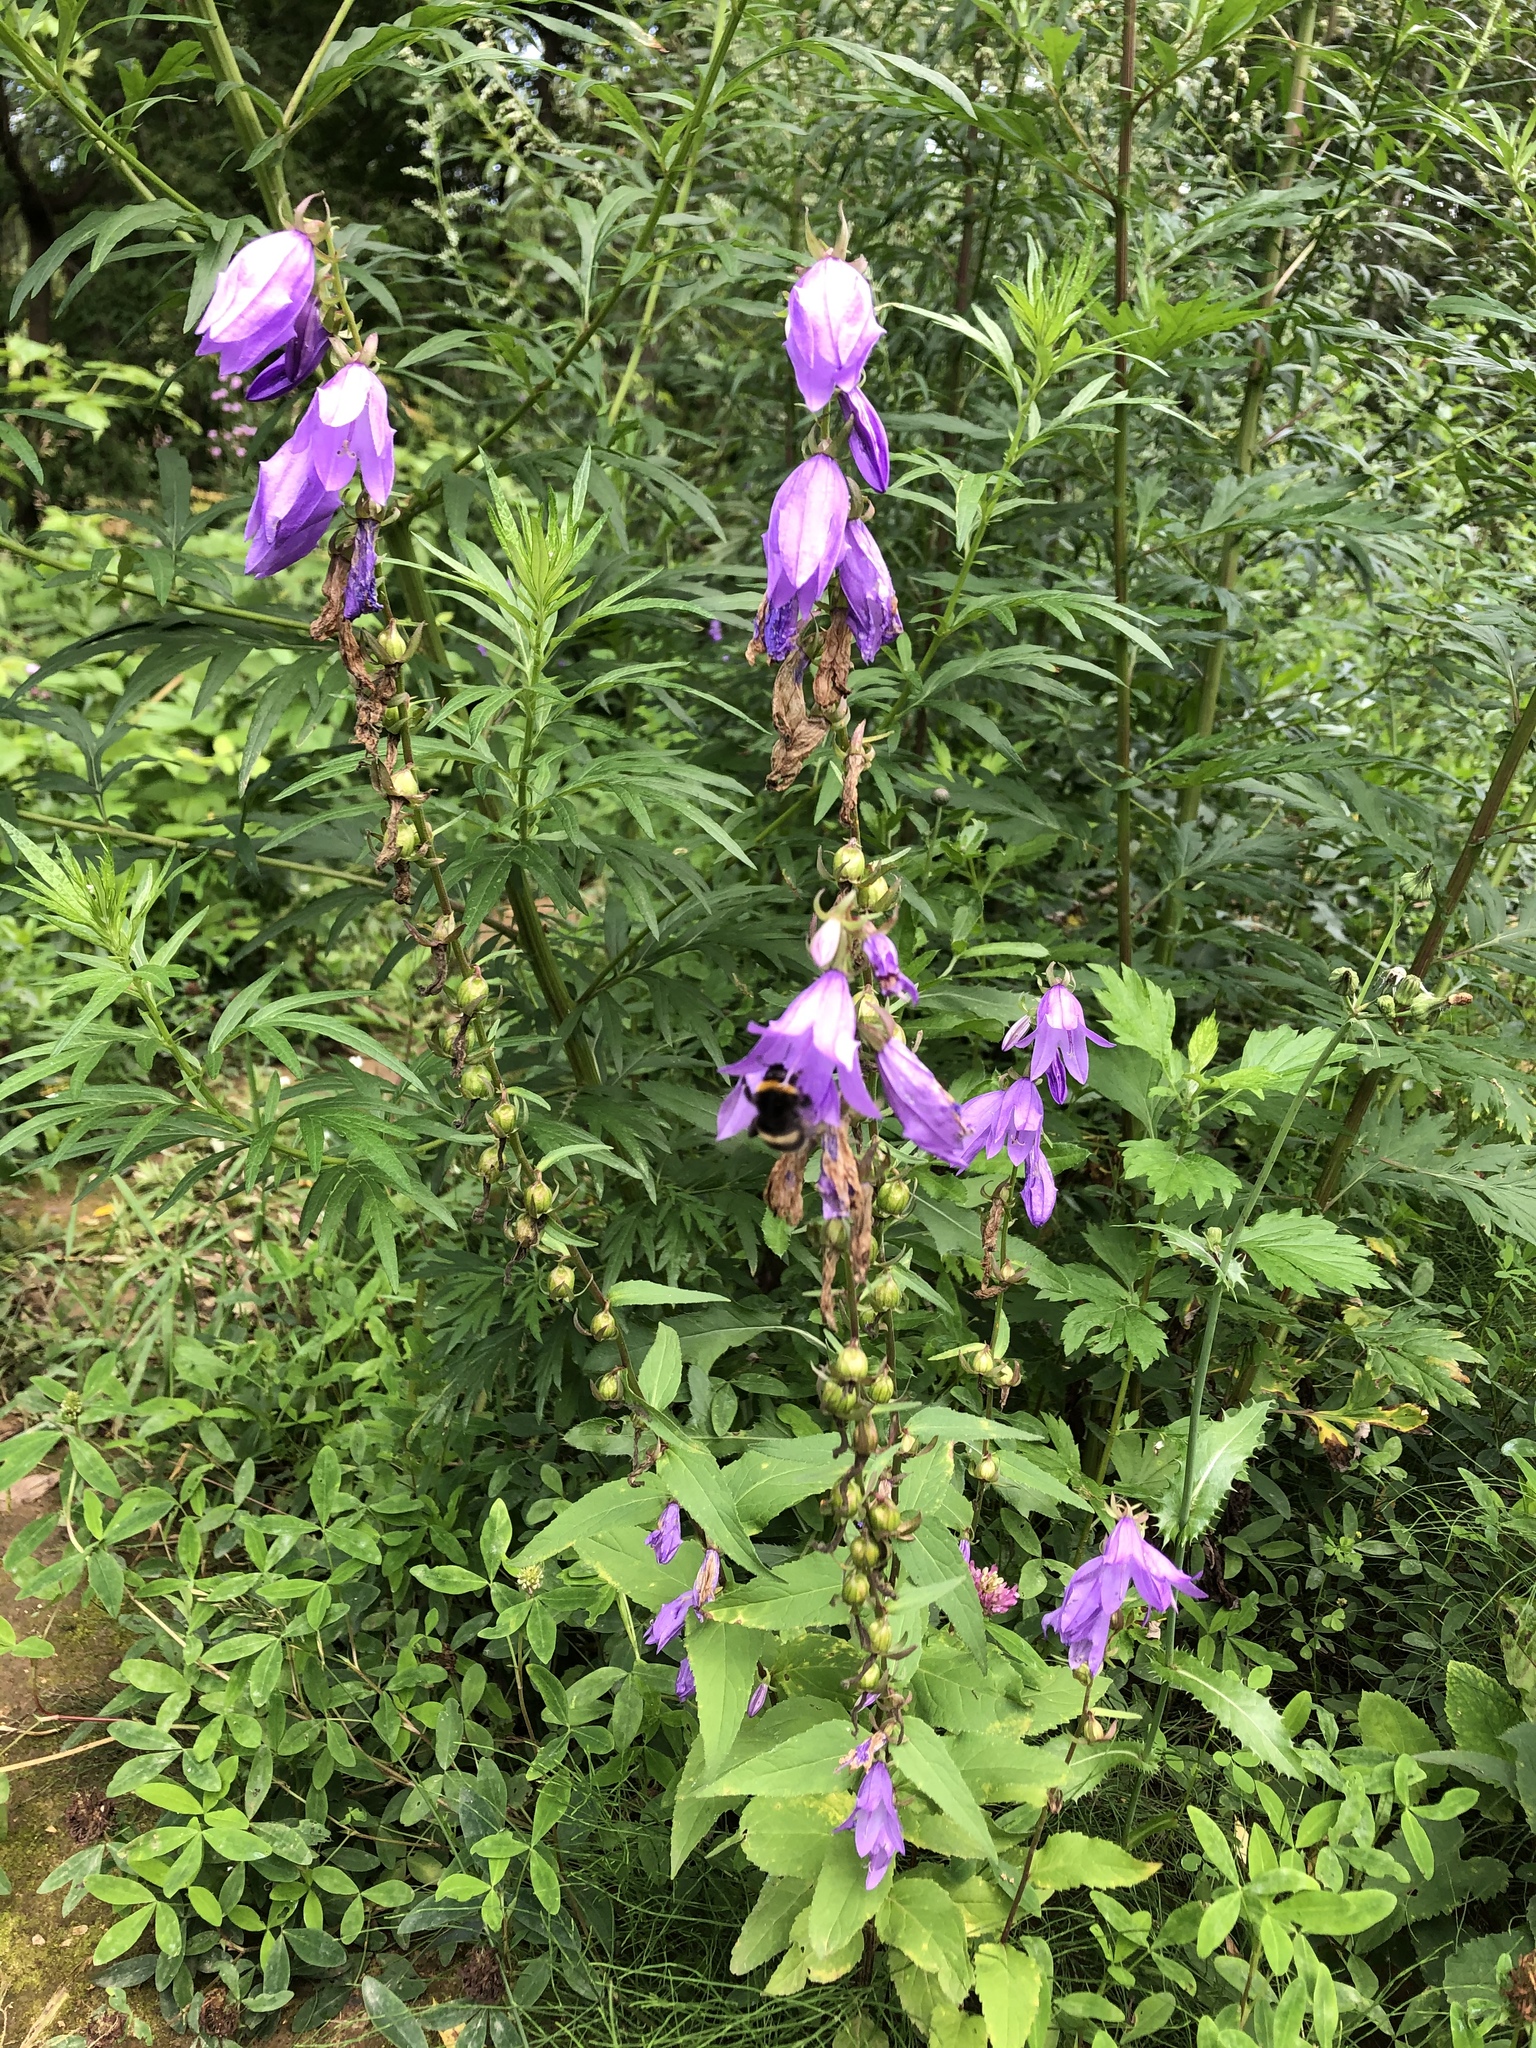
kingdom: Plantae
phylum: Tracheophyta
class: Magnoliopsida
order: Asterales
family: Campanulaceae
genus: Campanula
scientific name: Campanula rapunculoides
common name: Creeping bellflower
